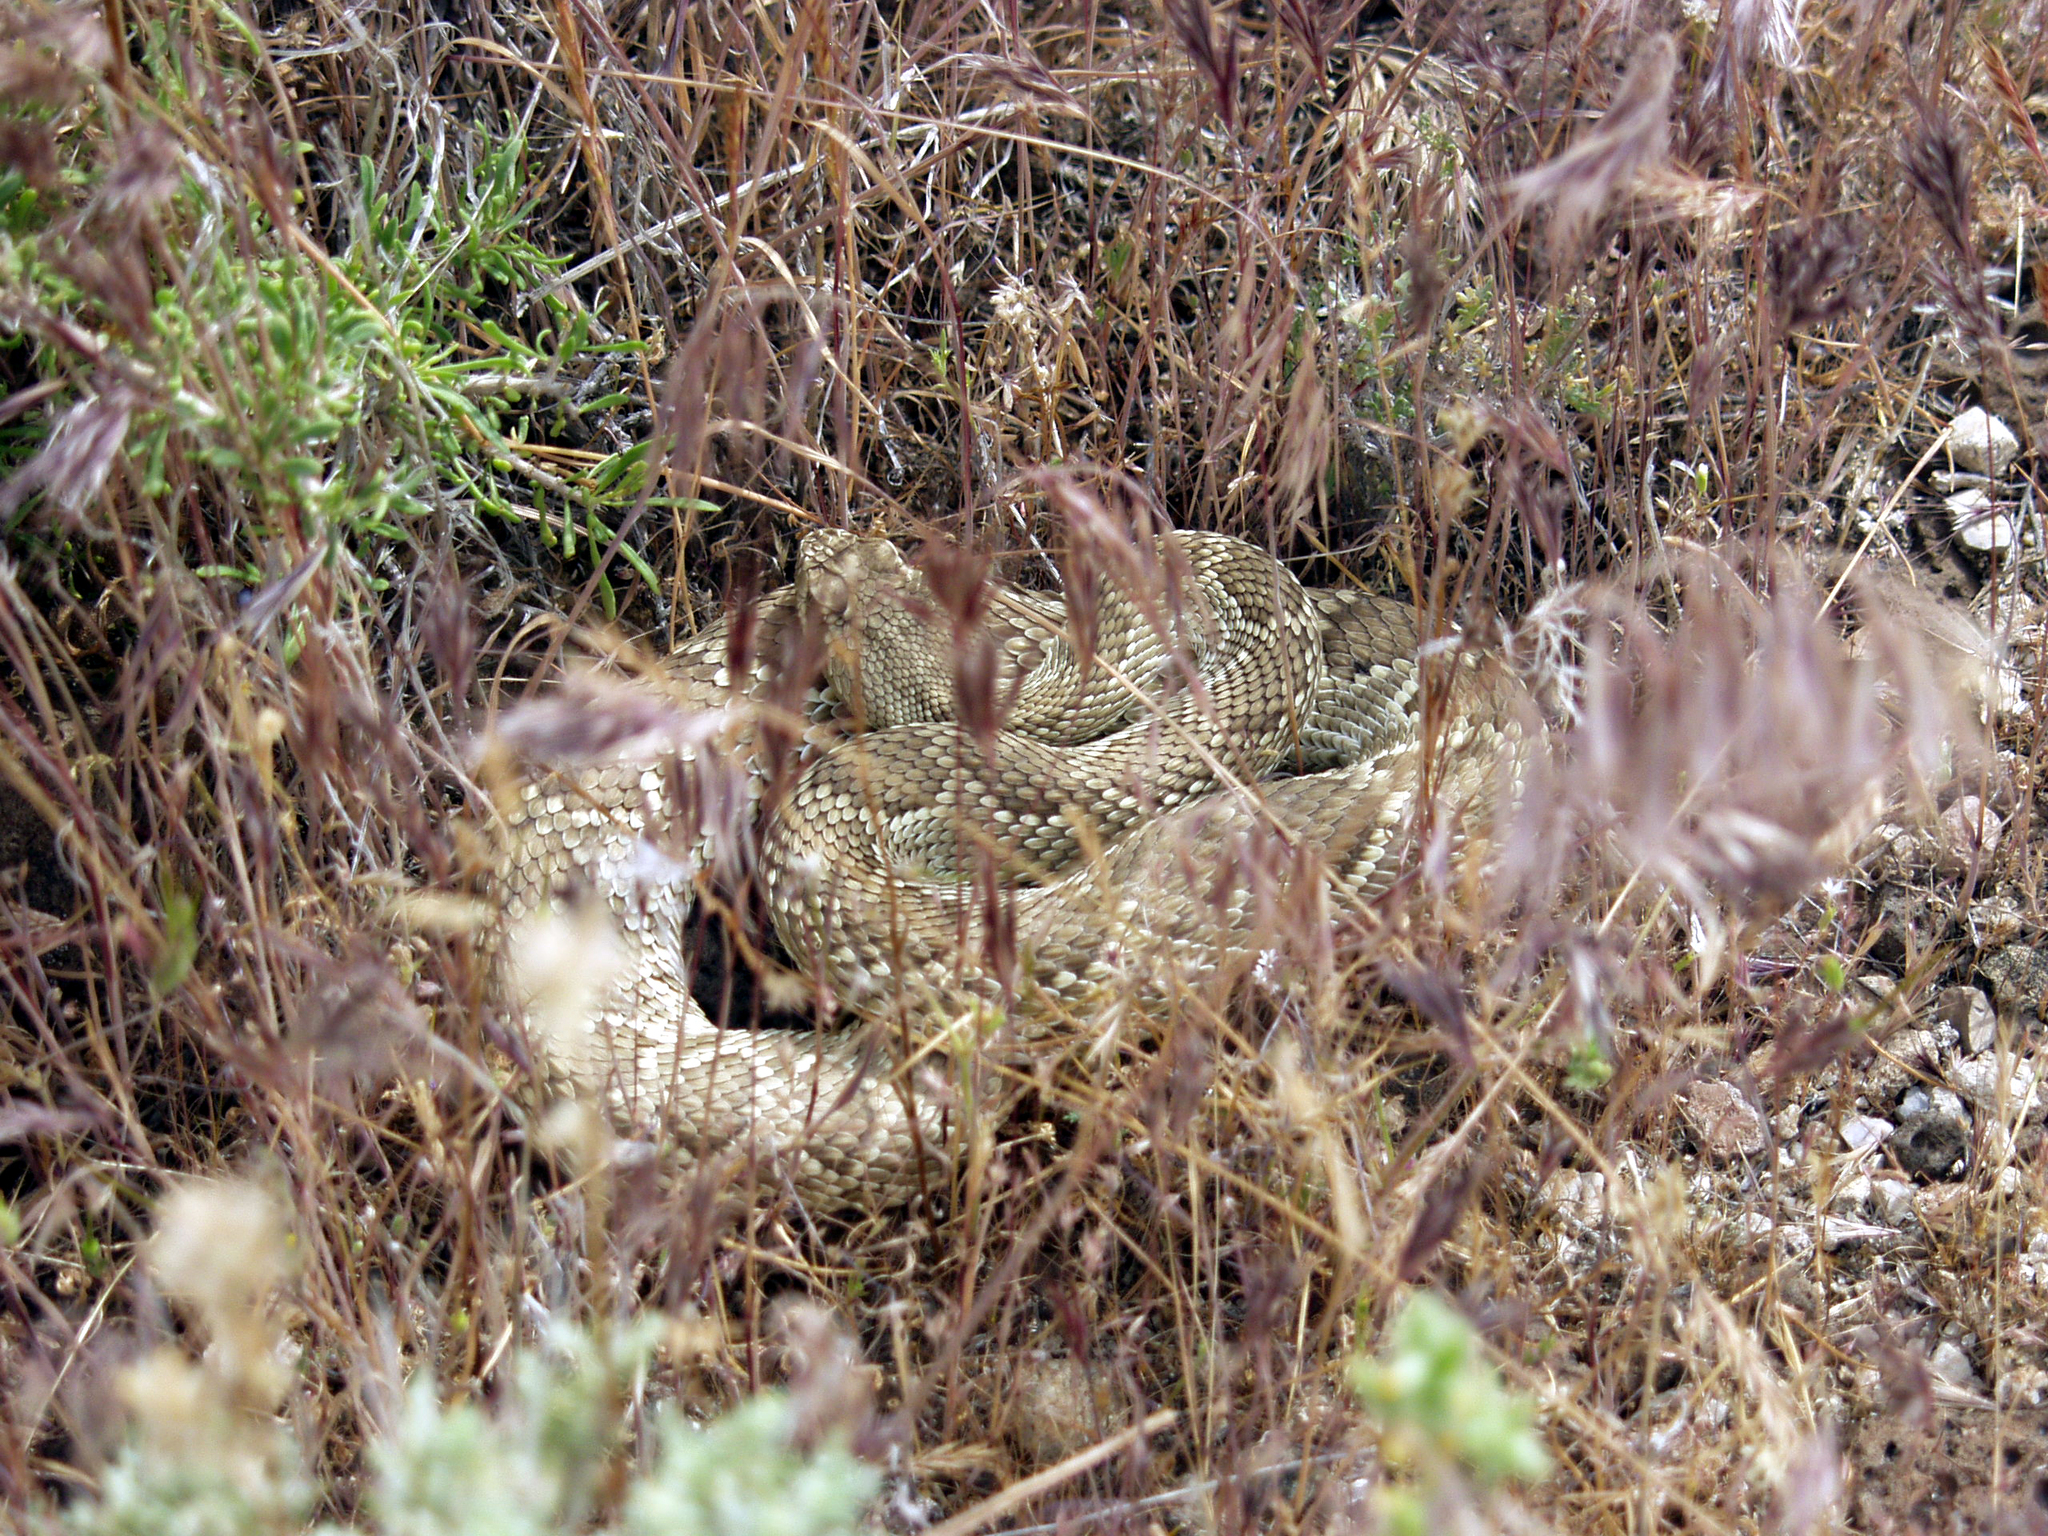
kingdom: Animalia
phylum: Chordata
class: Squamata
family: Viperidae
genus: Crotalus
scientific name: Crotalus scutulatus
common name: Scutulatus
